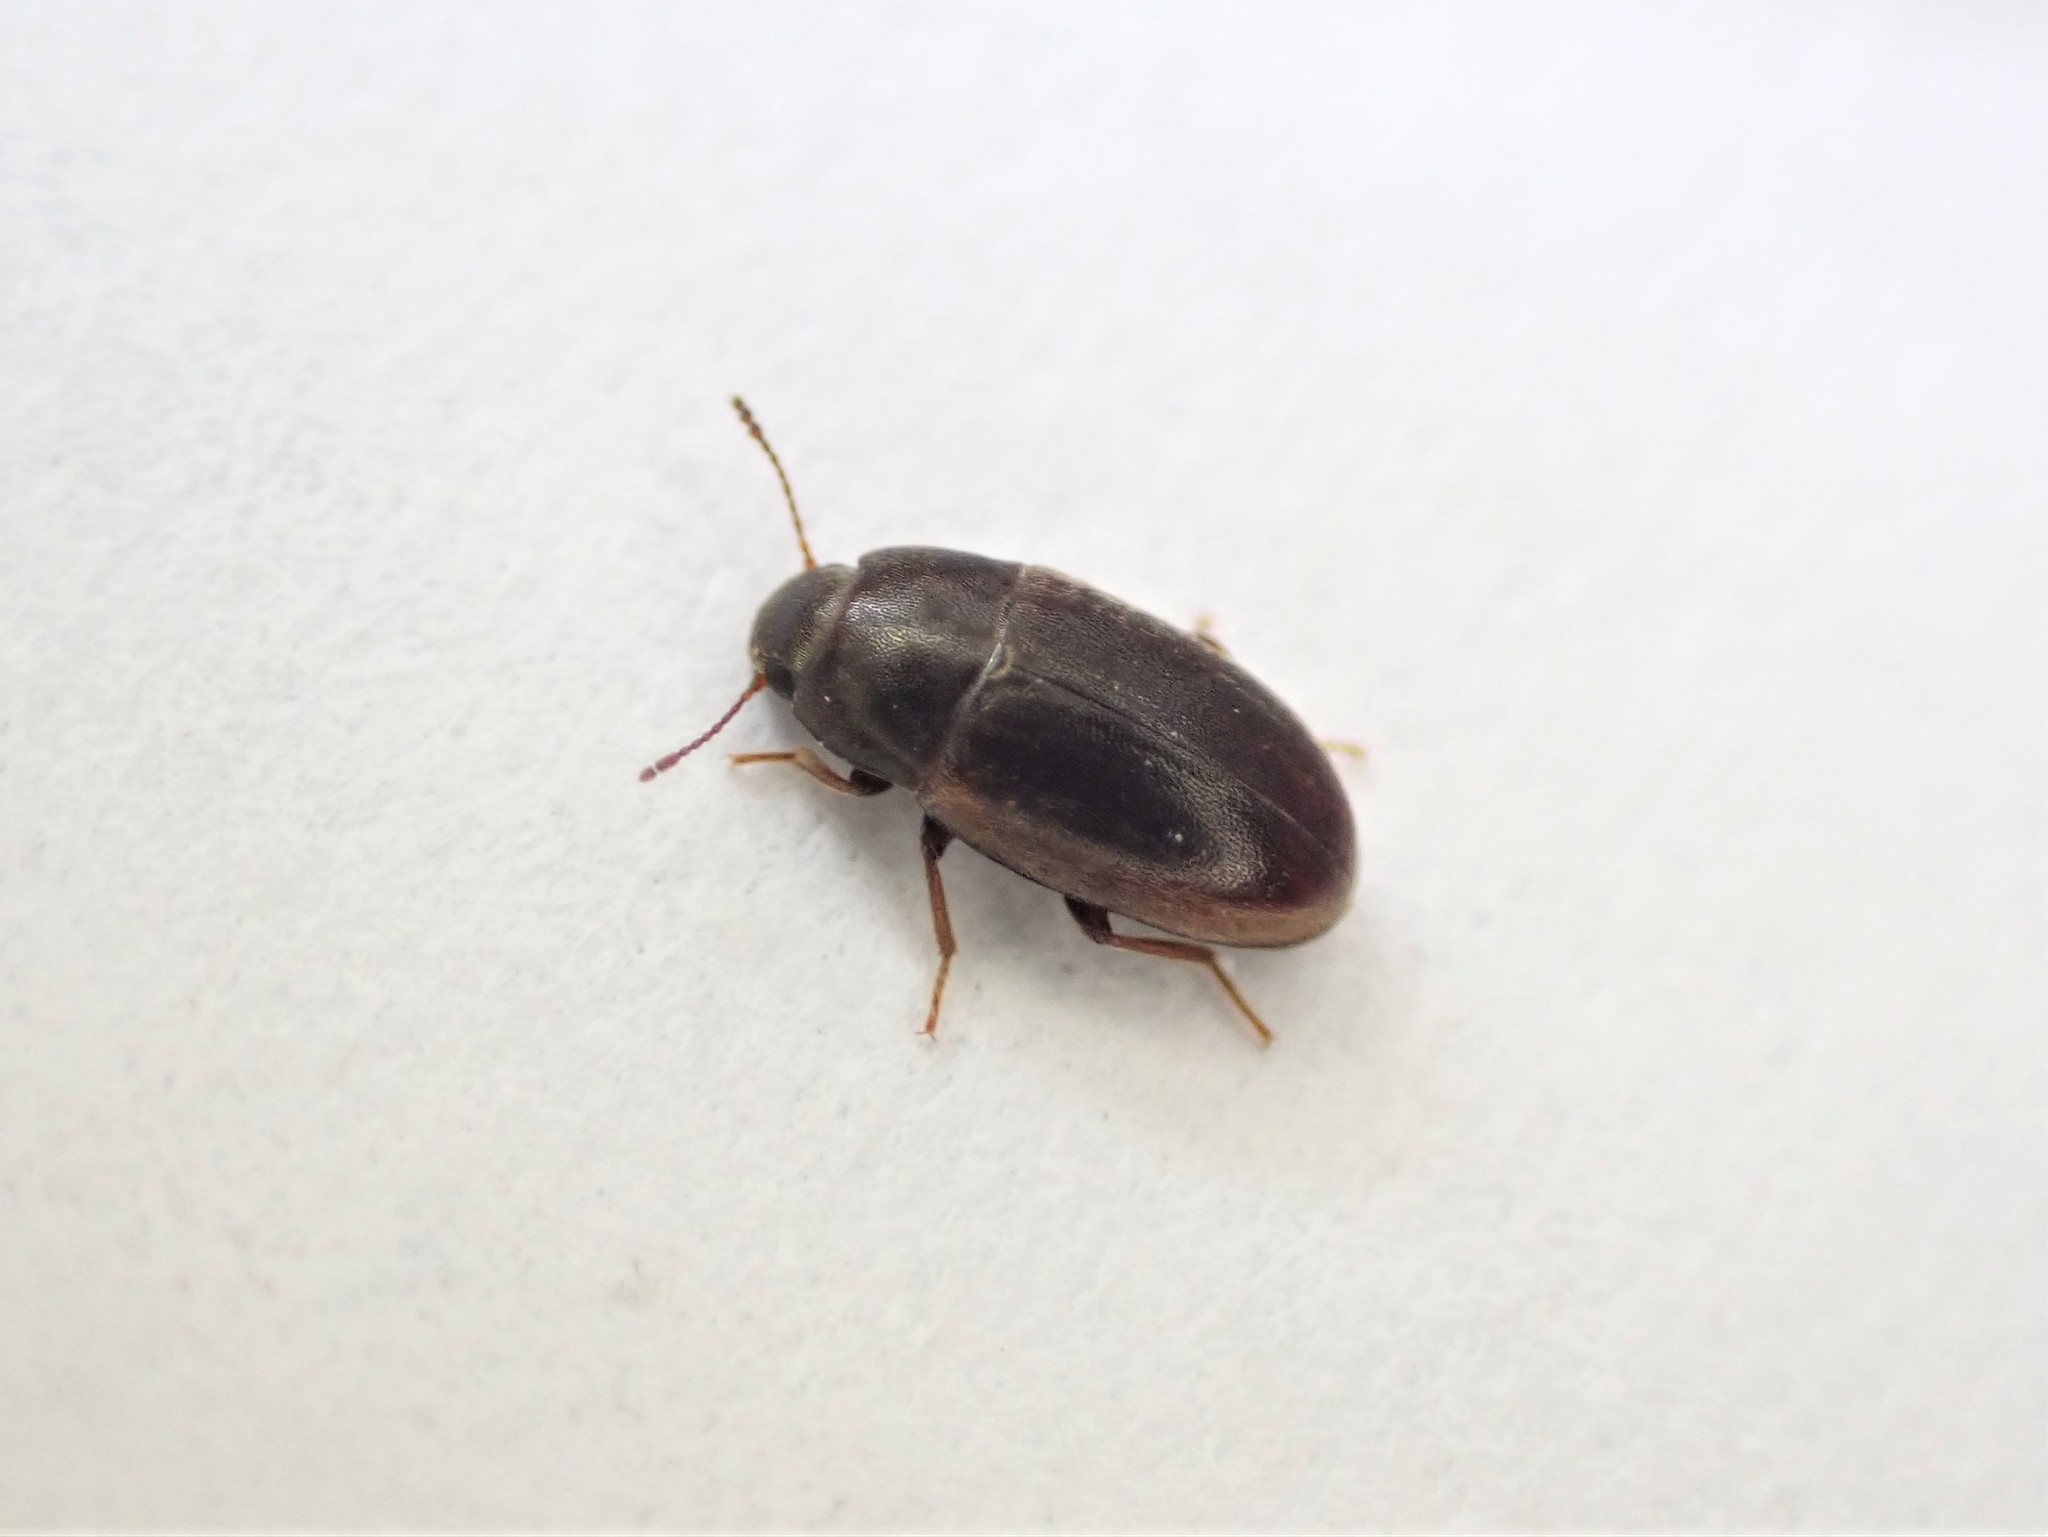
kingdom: Animalia
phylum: Arthropoda
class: Insecta
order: Coleoptera
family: Archeocrypticidae
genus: Enneboeus
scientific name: Enneboeus
